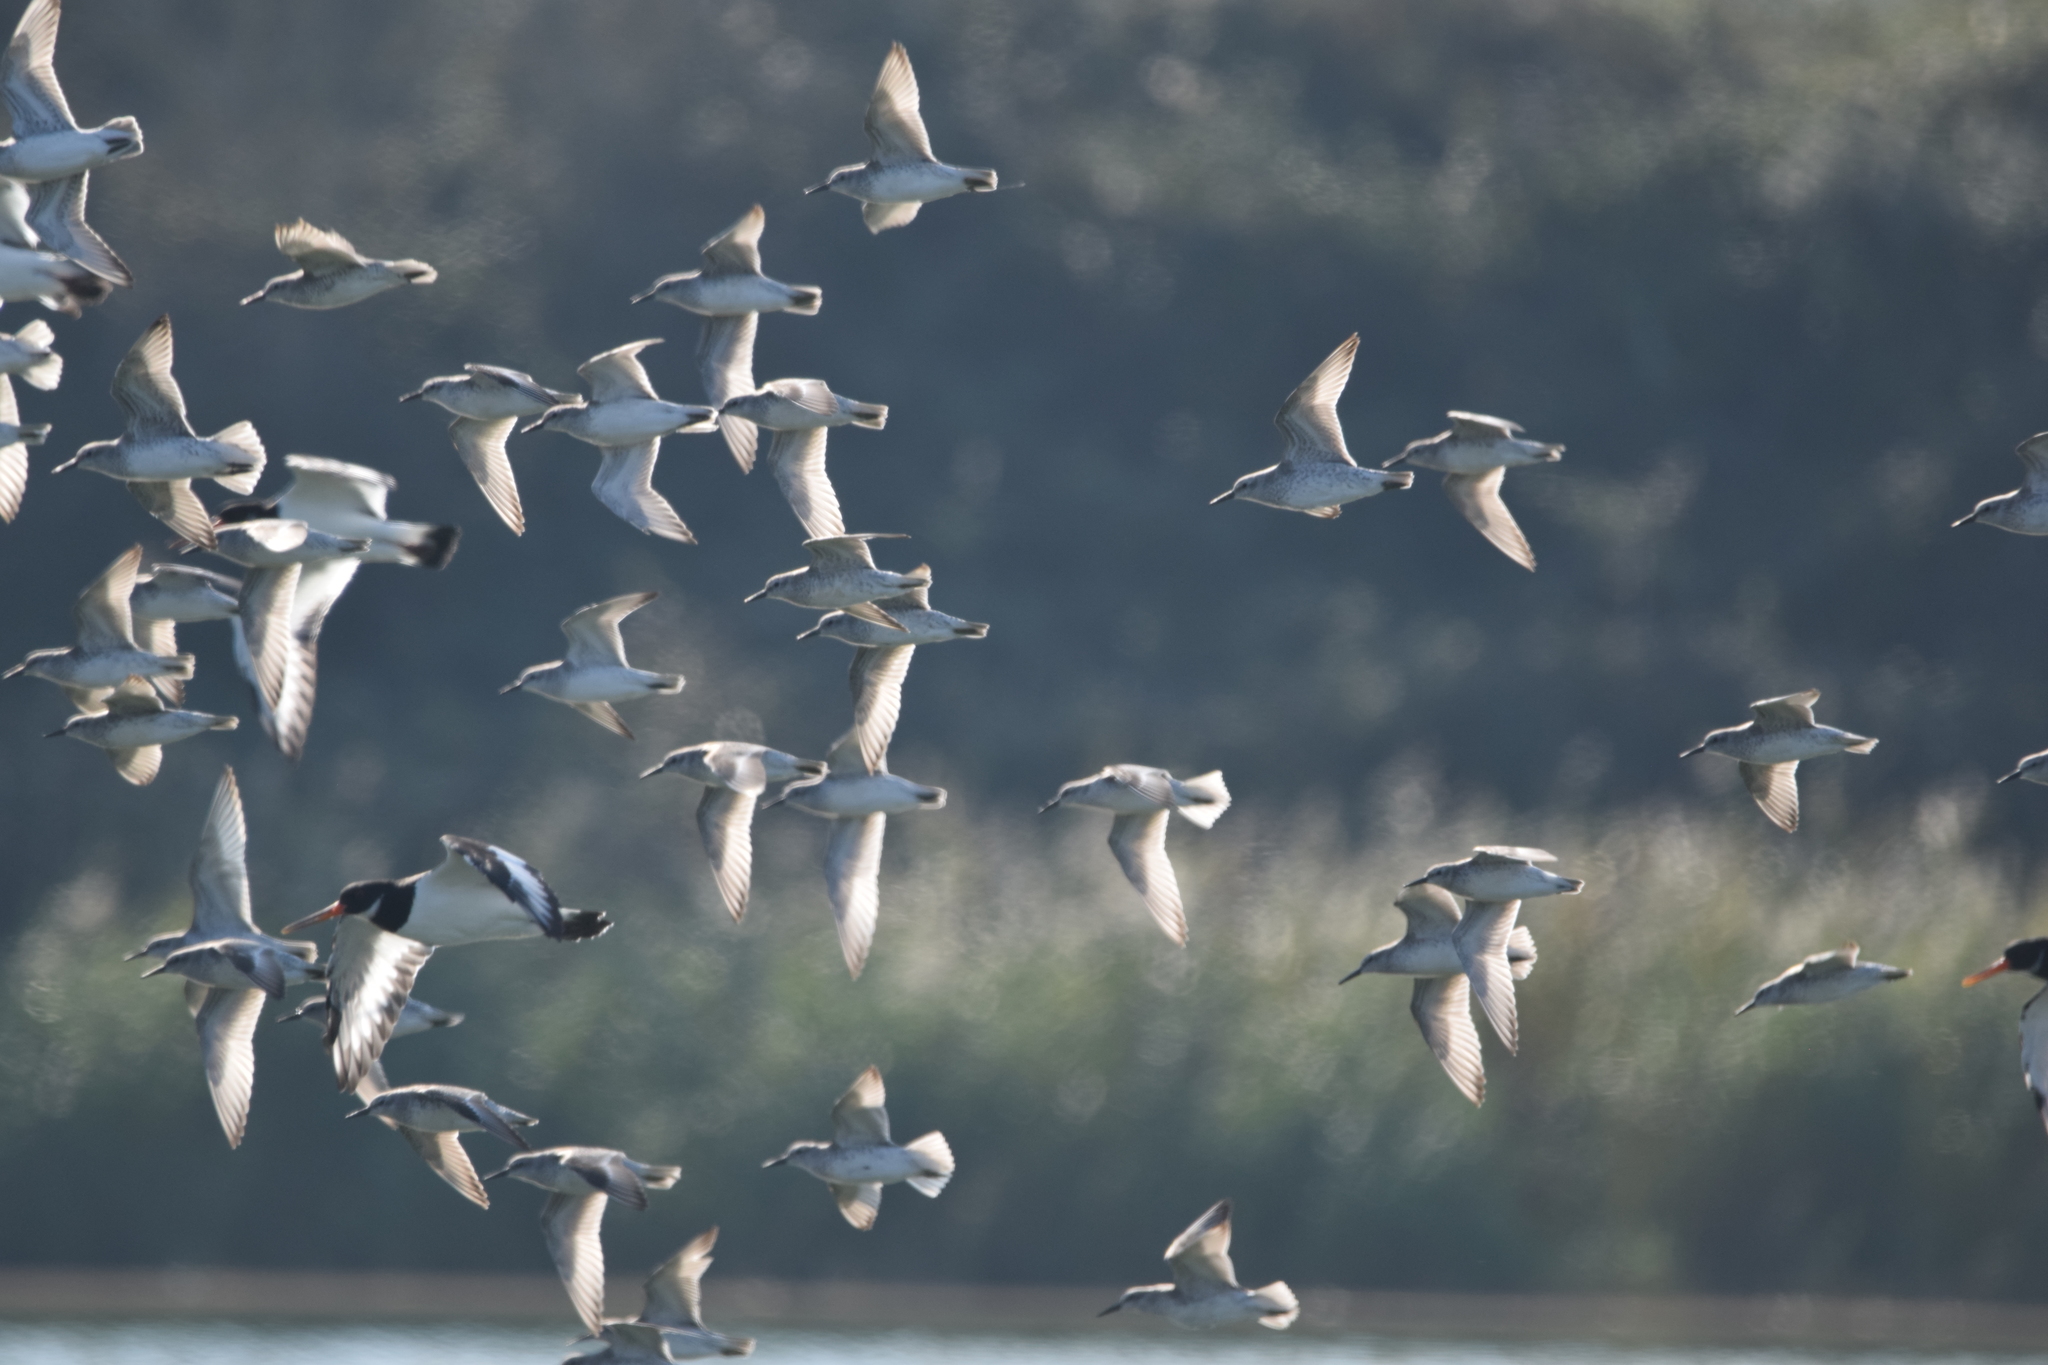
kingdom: Animalia
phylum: Chordata
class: Aves
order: Charadriiformes
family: Scolopacidae
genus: Calidris
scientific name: Calidris canutus
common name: Red knot
